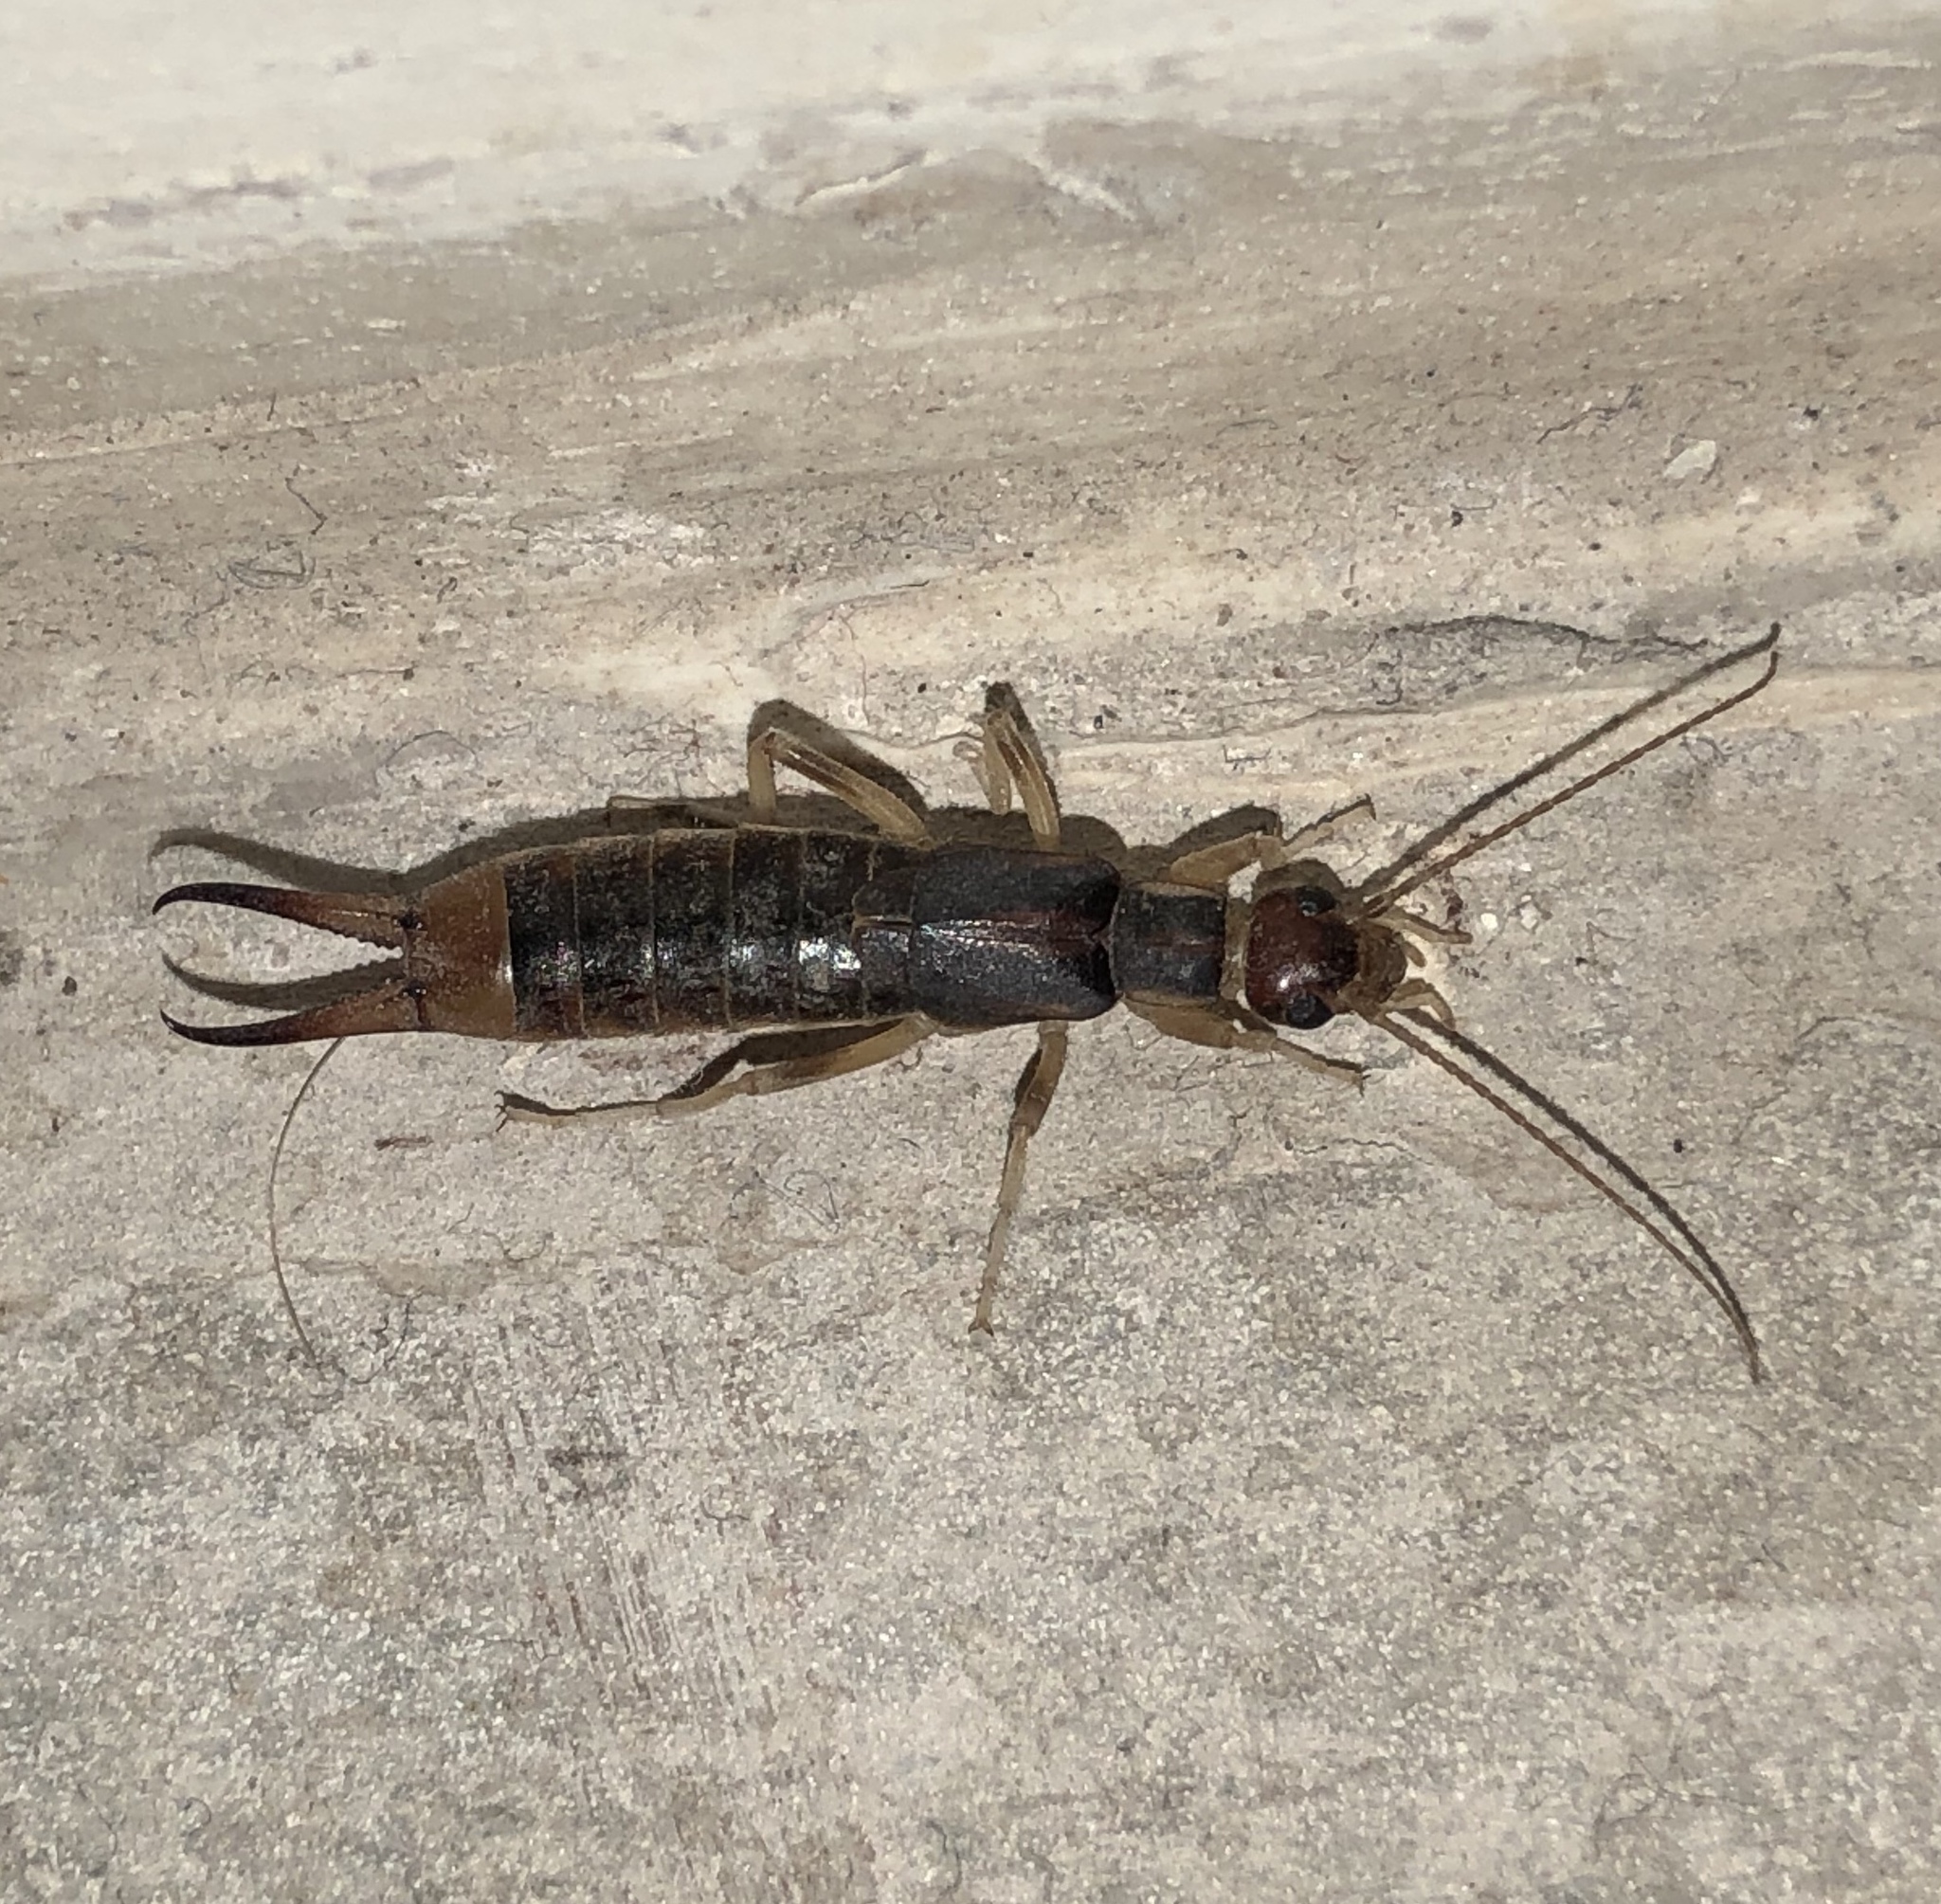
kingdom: Animalia
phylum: Arthropoda
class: Insecta
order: Dermaptera
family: Labiduridae
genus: Labidura
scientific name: Labidura riparia
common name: Striped earwig
